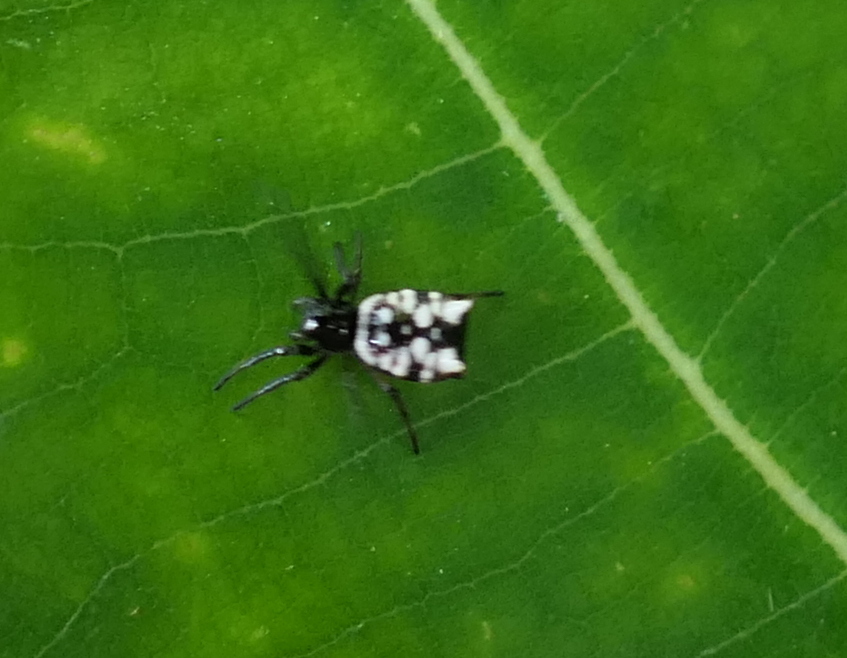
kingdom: Animalia
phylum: Arthropoda
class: Arachnida
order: Araneae
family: Araneidae
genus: Micrathena
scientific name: Micrathena patruelis
